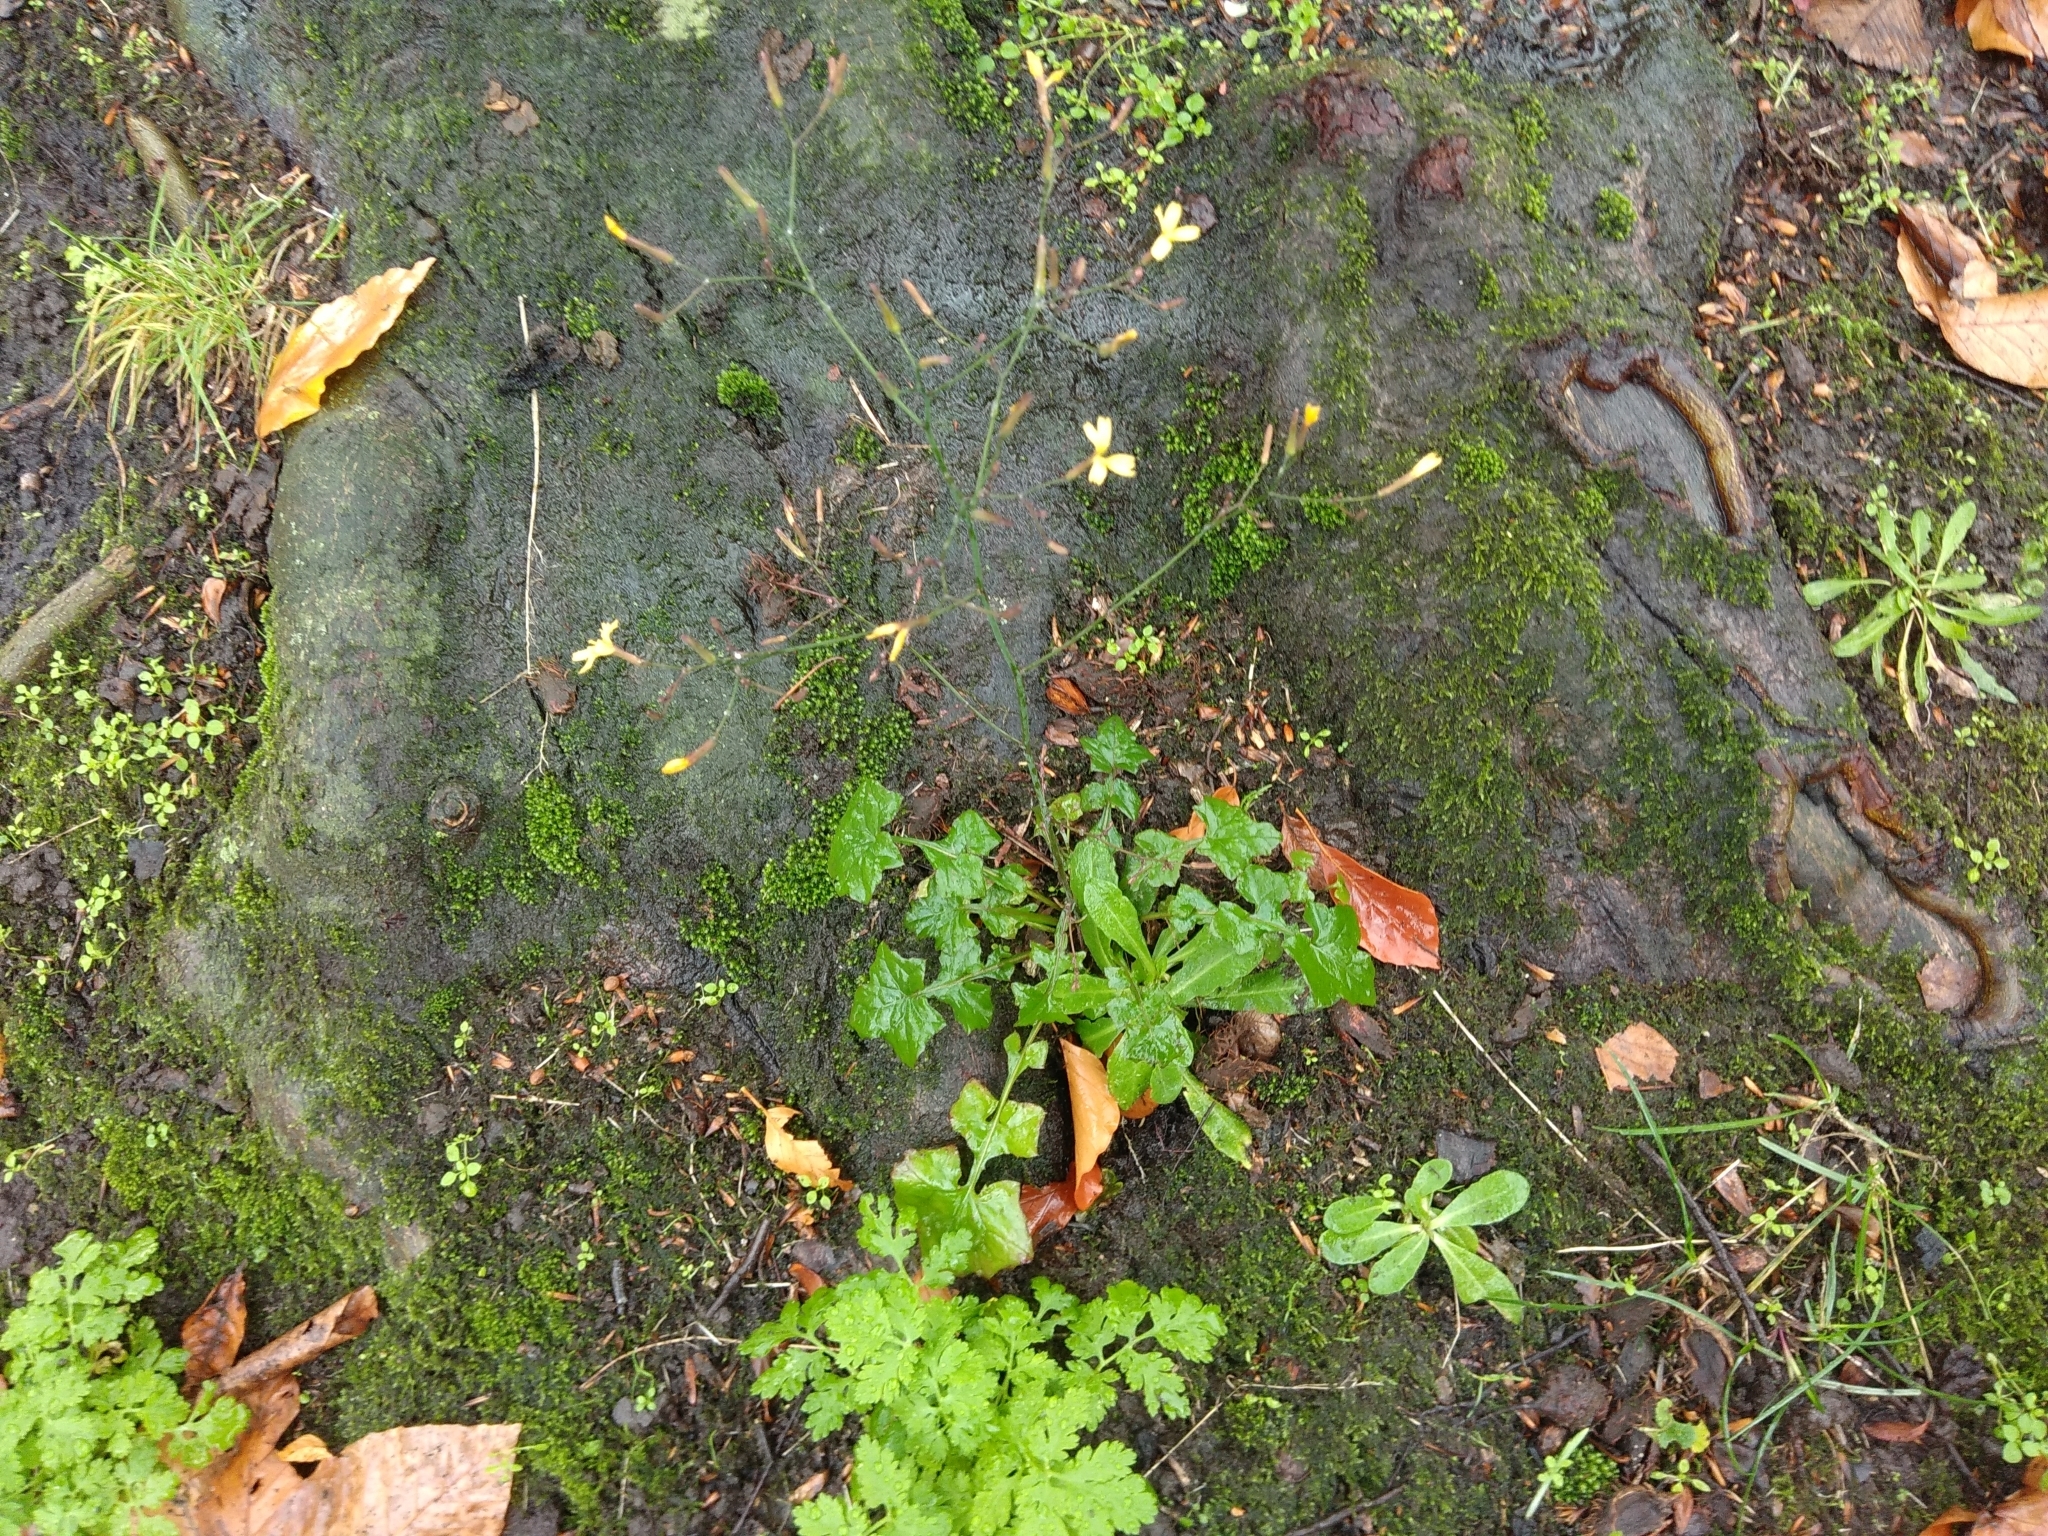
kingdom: Plantae
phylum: Tracheophyta
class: Magnoliopsida
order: Asterales
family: Asteraceae
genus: Mycelis
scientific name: Mycelis muralis
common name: Wall lettuce
